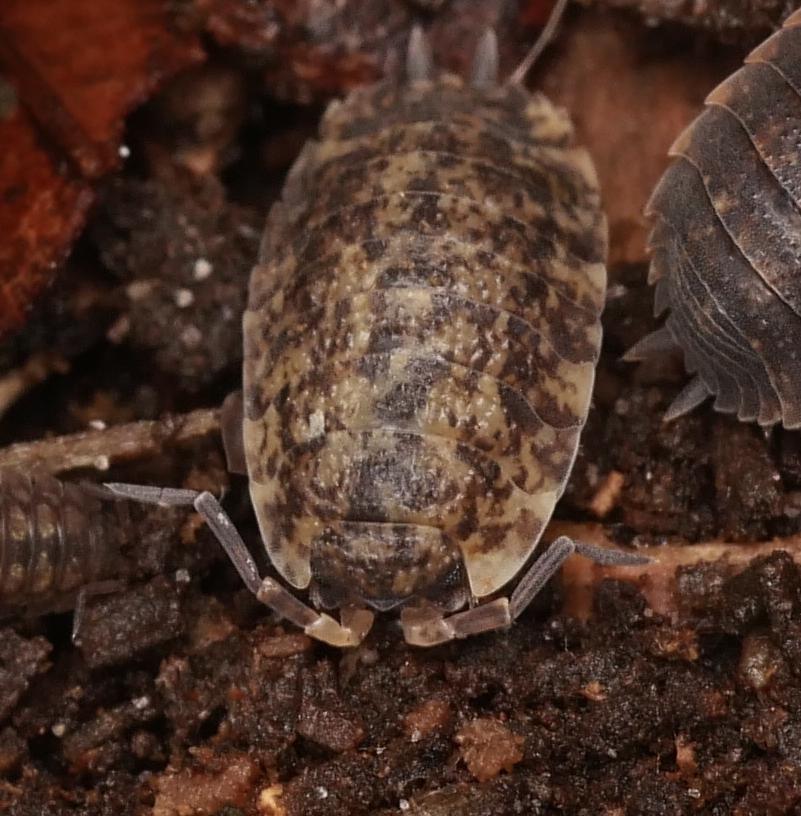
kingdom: Animalia
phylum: Arthropoda
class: Malacostraca
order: Isopoda
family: Porcellionidae
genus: Porcellio
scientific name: Porcellio scaber
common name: Common rough woodlouse
